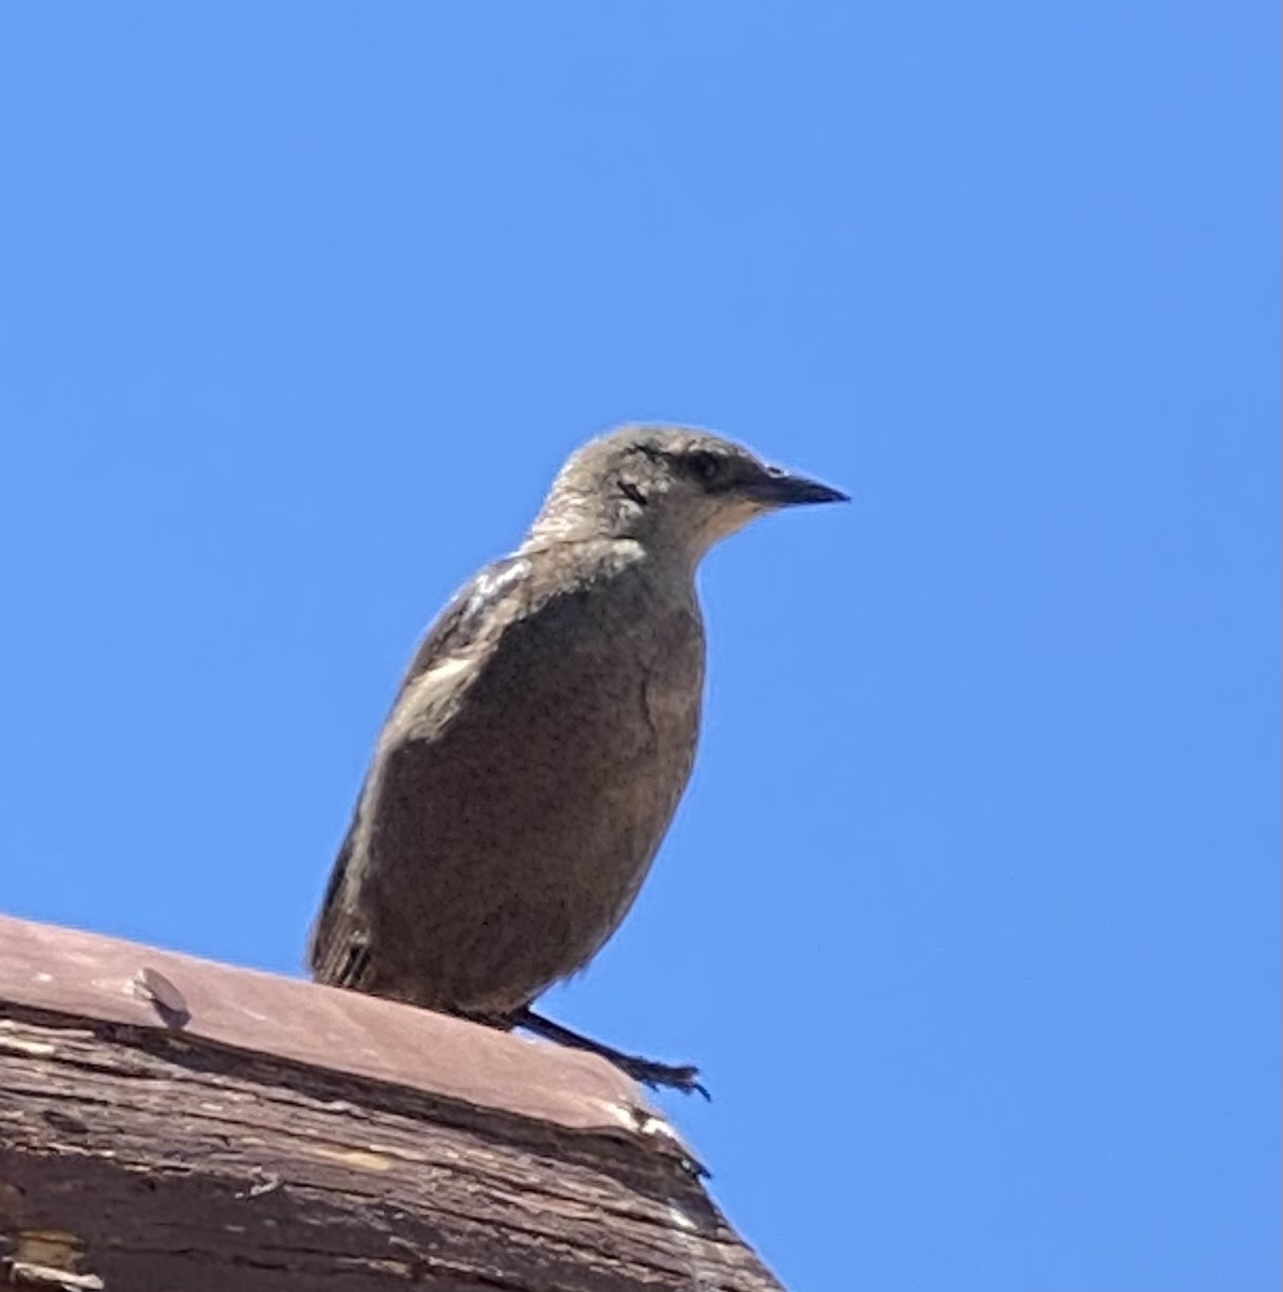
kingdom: Animalia
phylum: Chordata
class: Aves
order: Passeriformes
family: Icteridae
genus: Euphagus
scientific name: Euphagus cyanocephalus
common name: Brewer's blackbird
